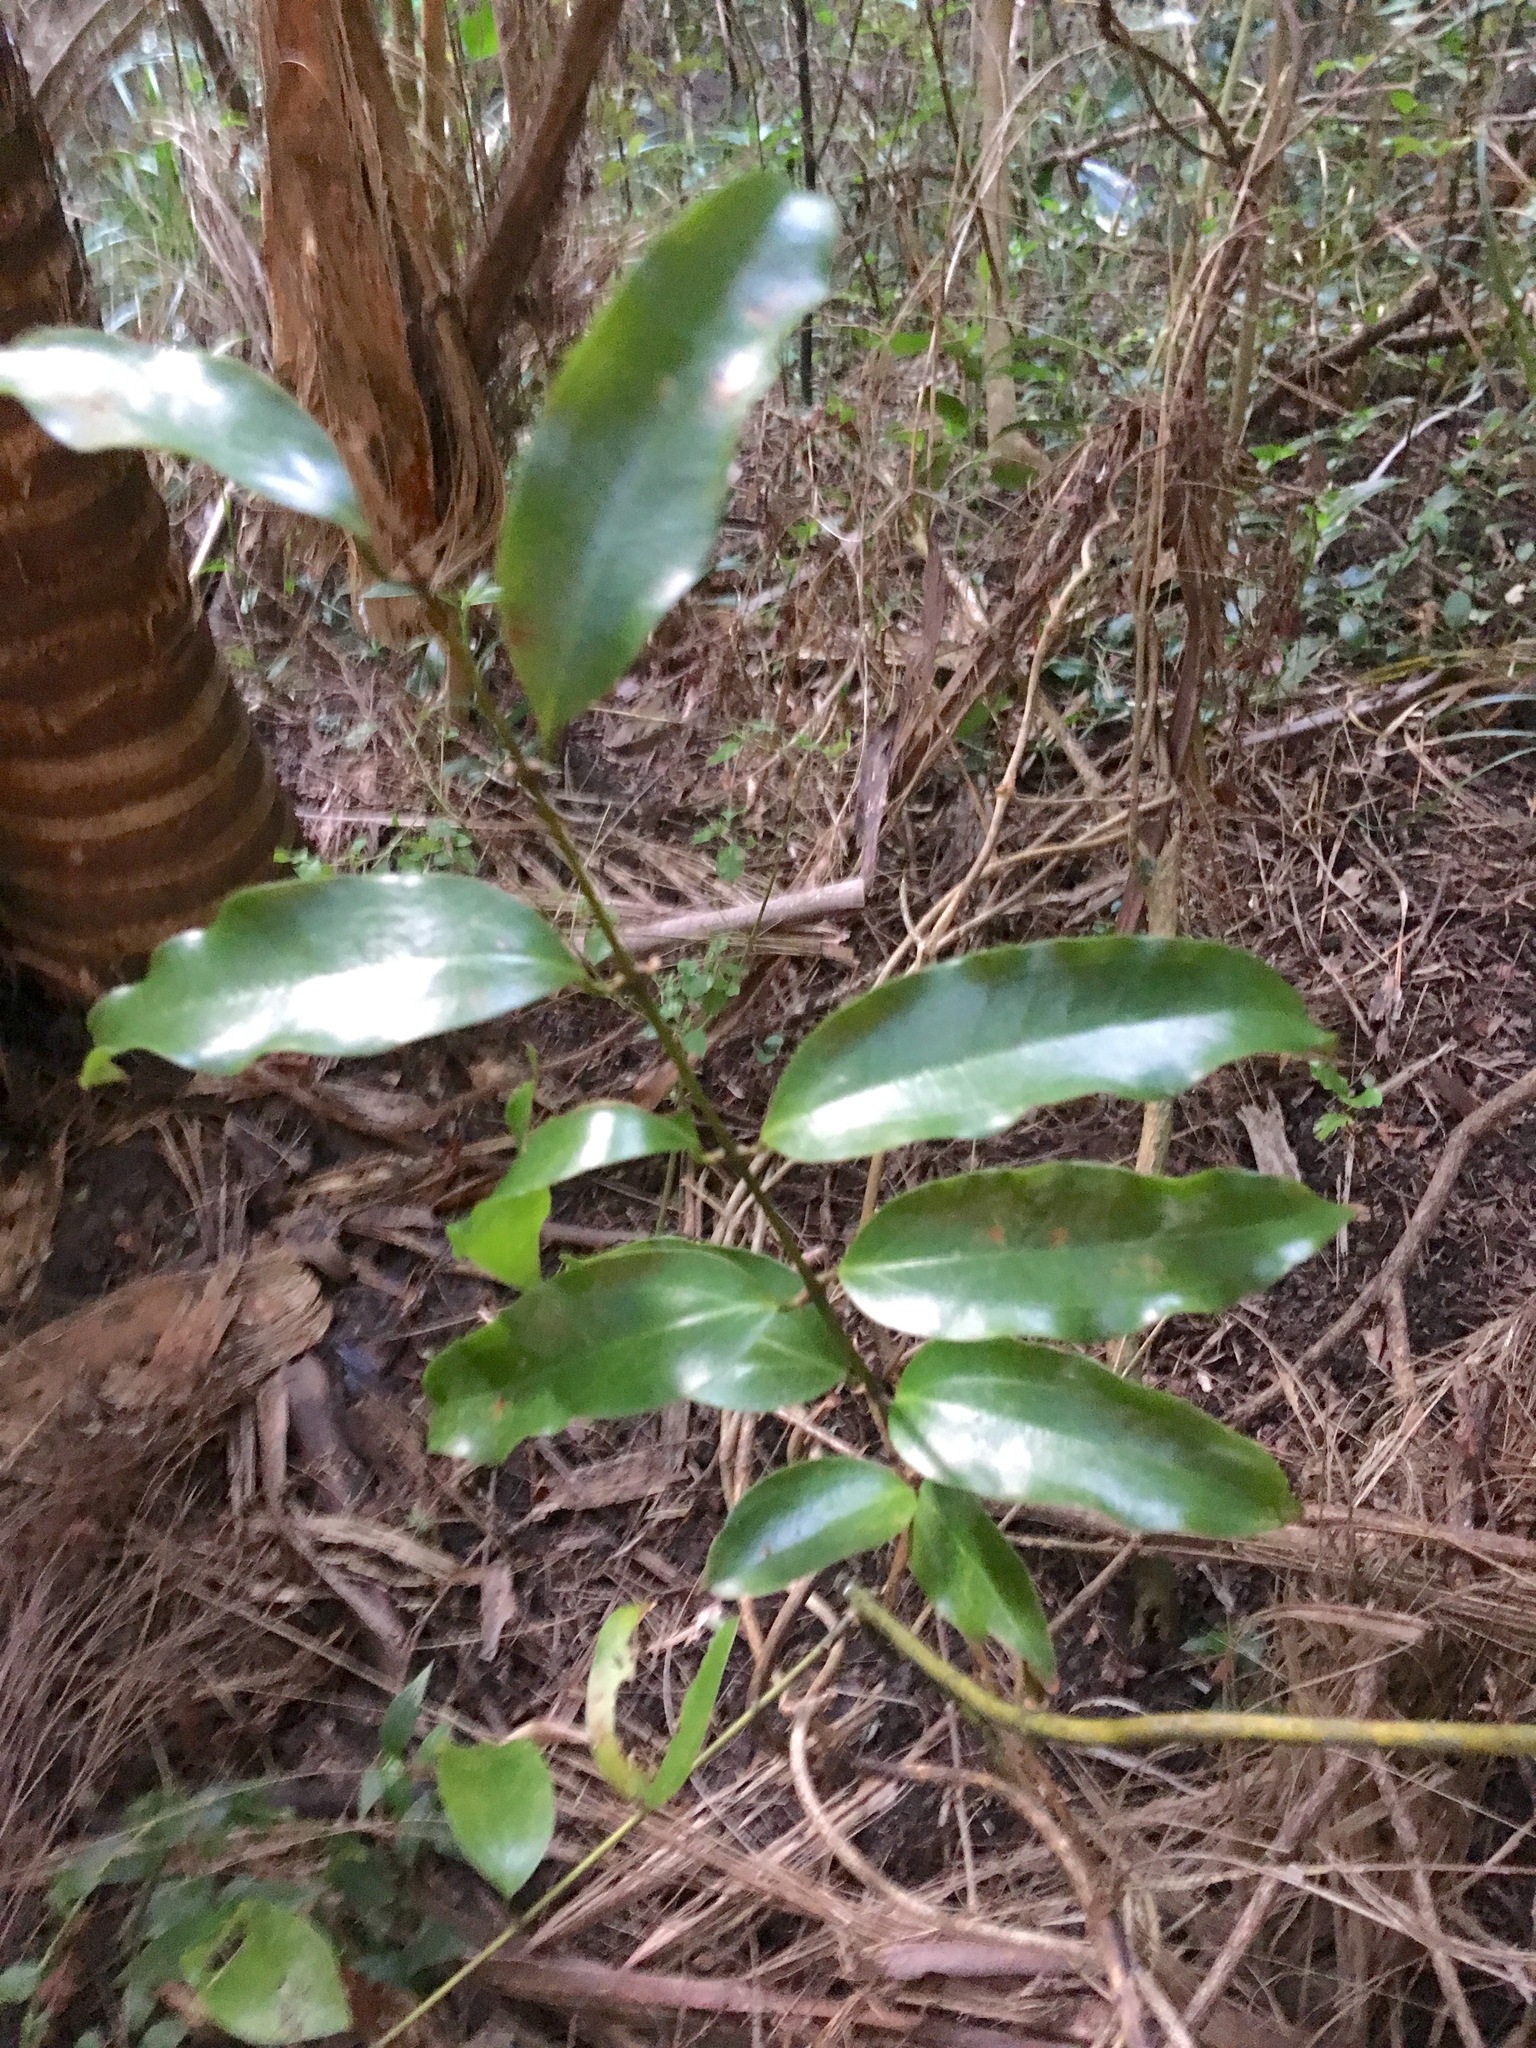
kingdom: Plantae
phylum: Tracheophyta
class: Liliopsida
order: Liliales
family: Ripogonaceae
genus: Ripogonum
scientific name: Ripogonum scandens
